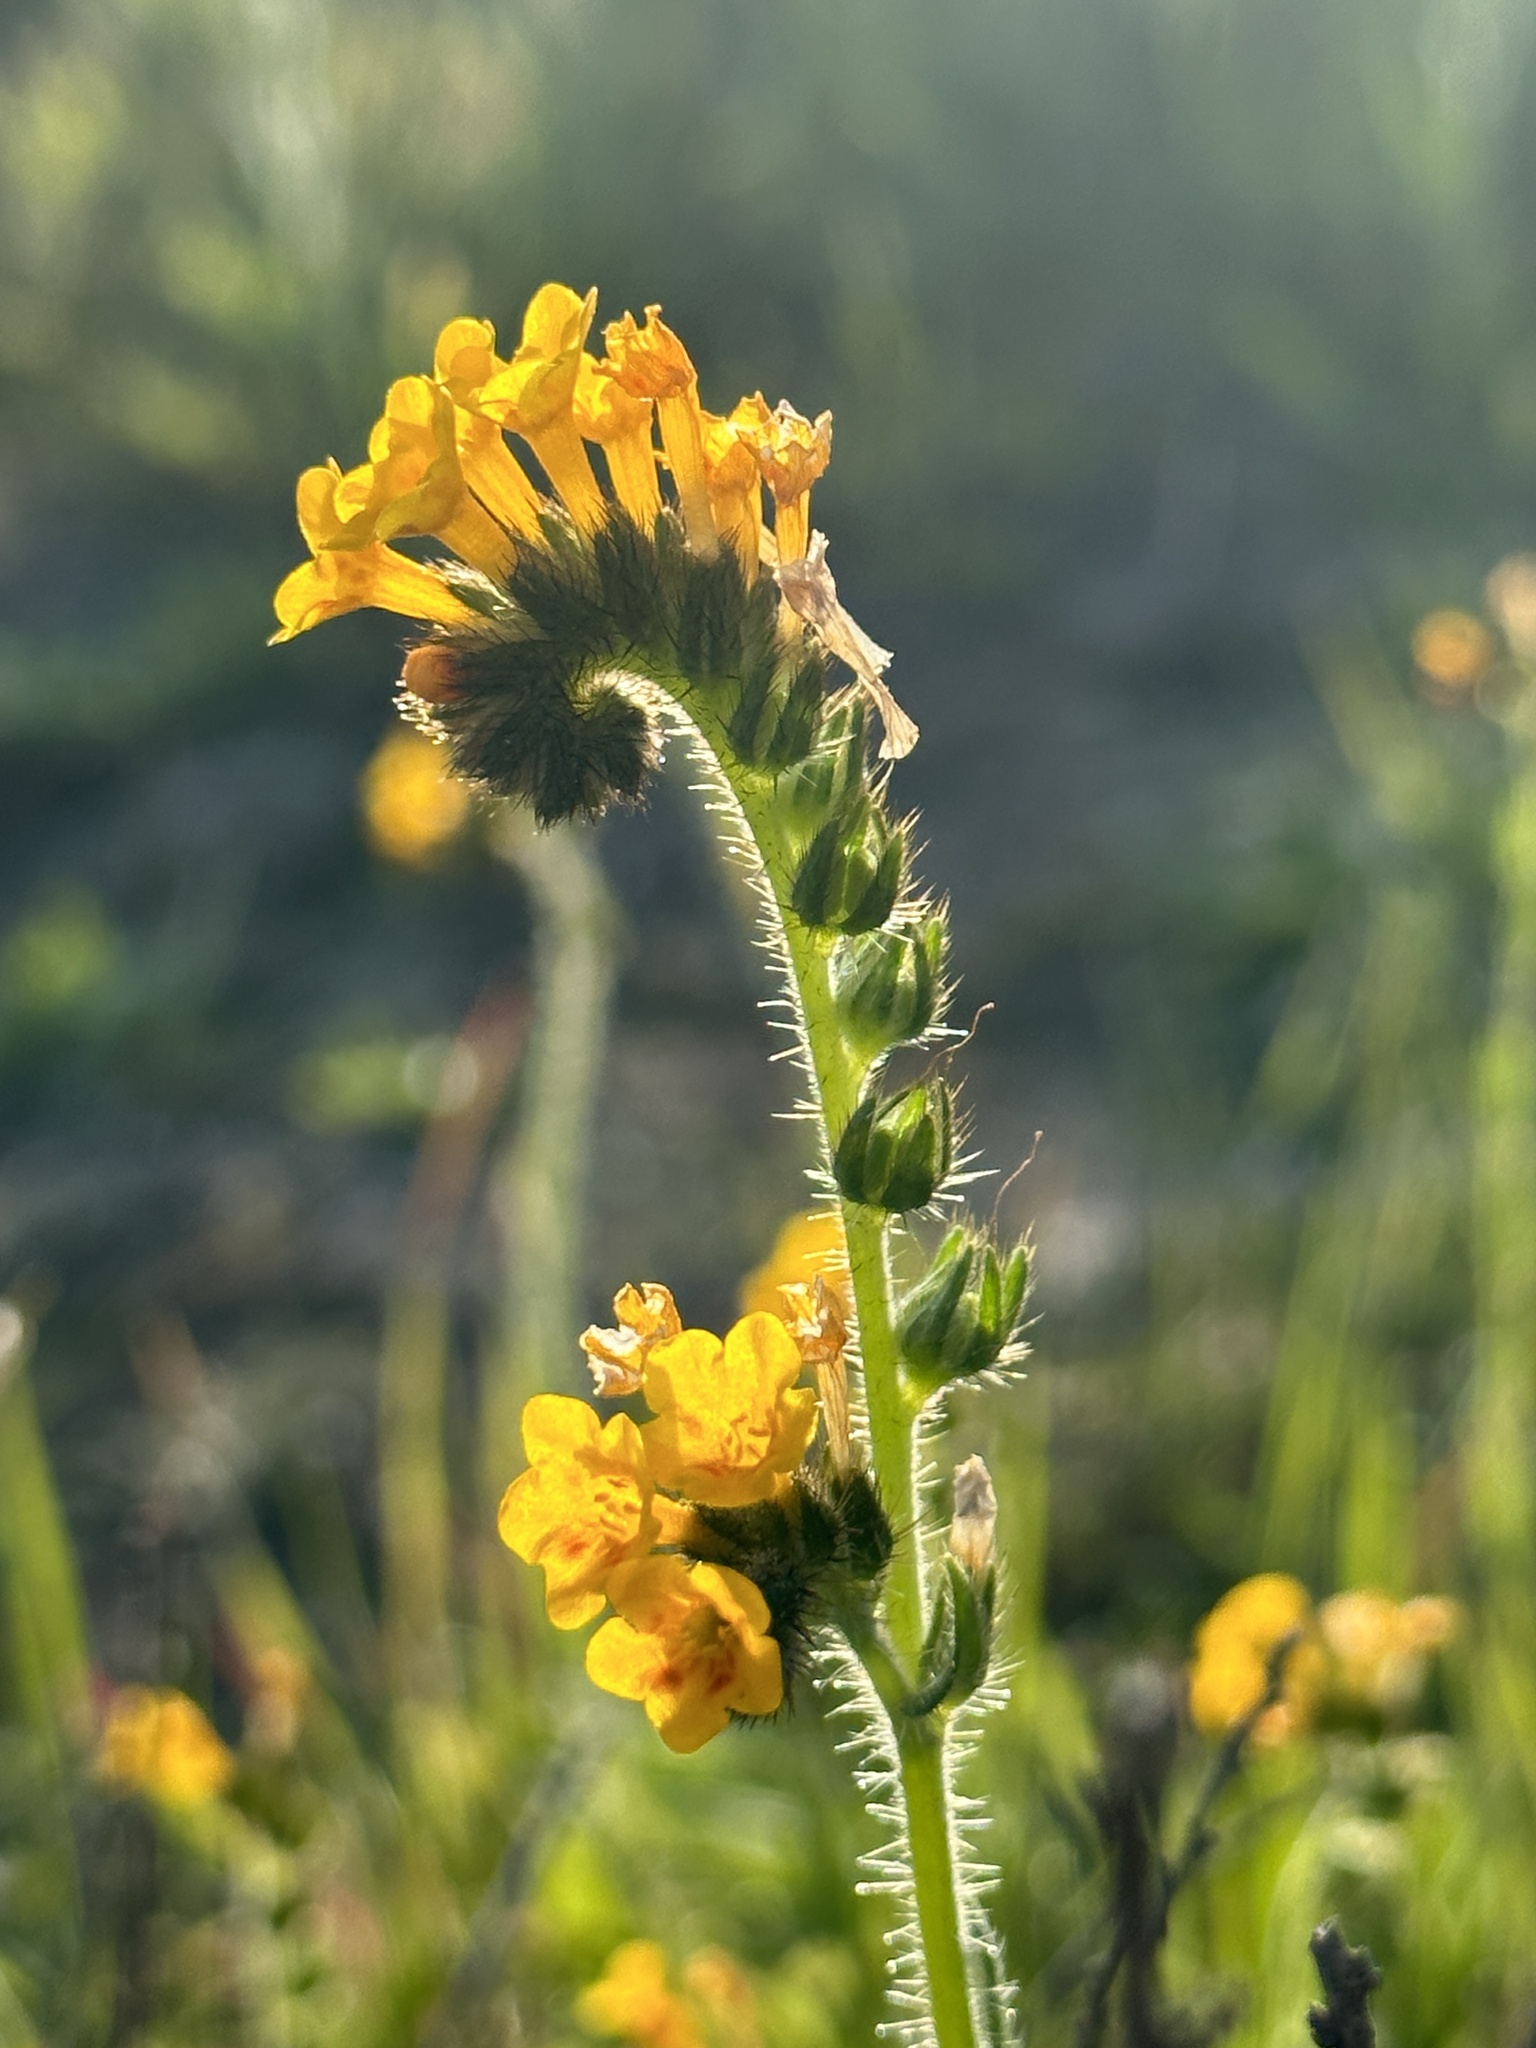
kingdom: Plantae
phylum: Tracheophyta
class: Magnoliopsida
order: Boraginales
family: Boraginaceae
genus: Amsinckia
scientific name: Amsinckia menziesii
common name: Menzies' fiddleneck
